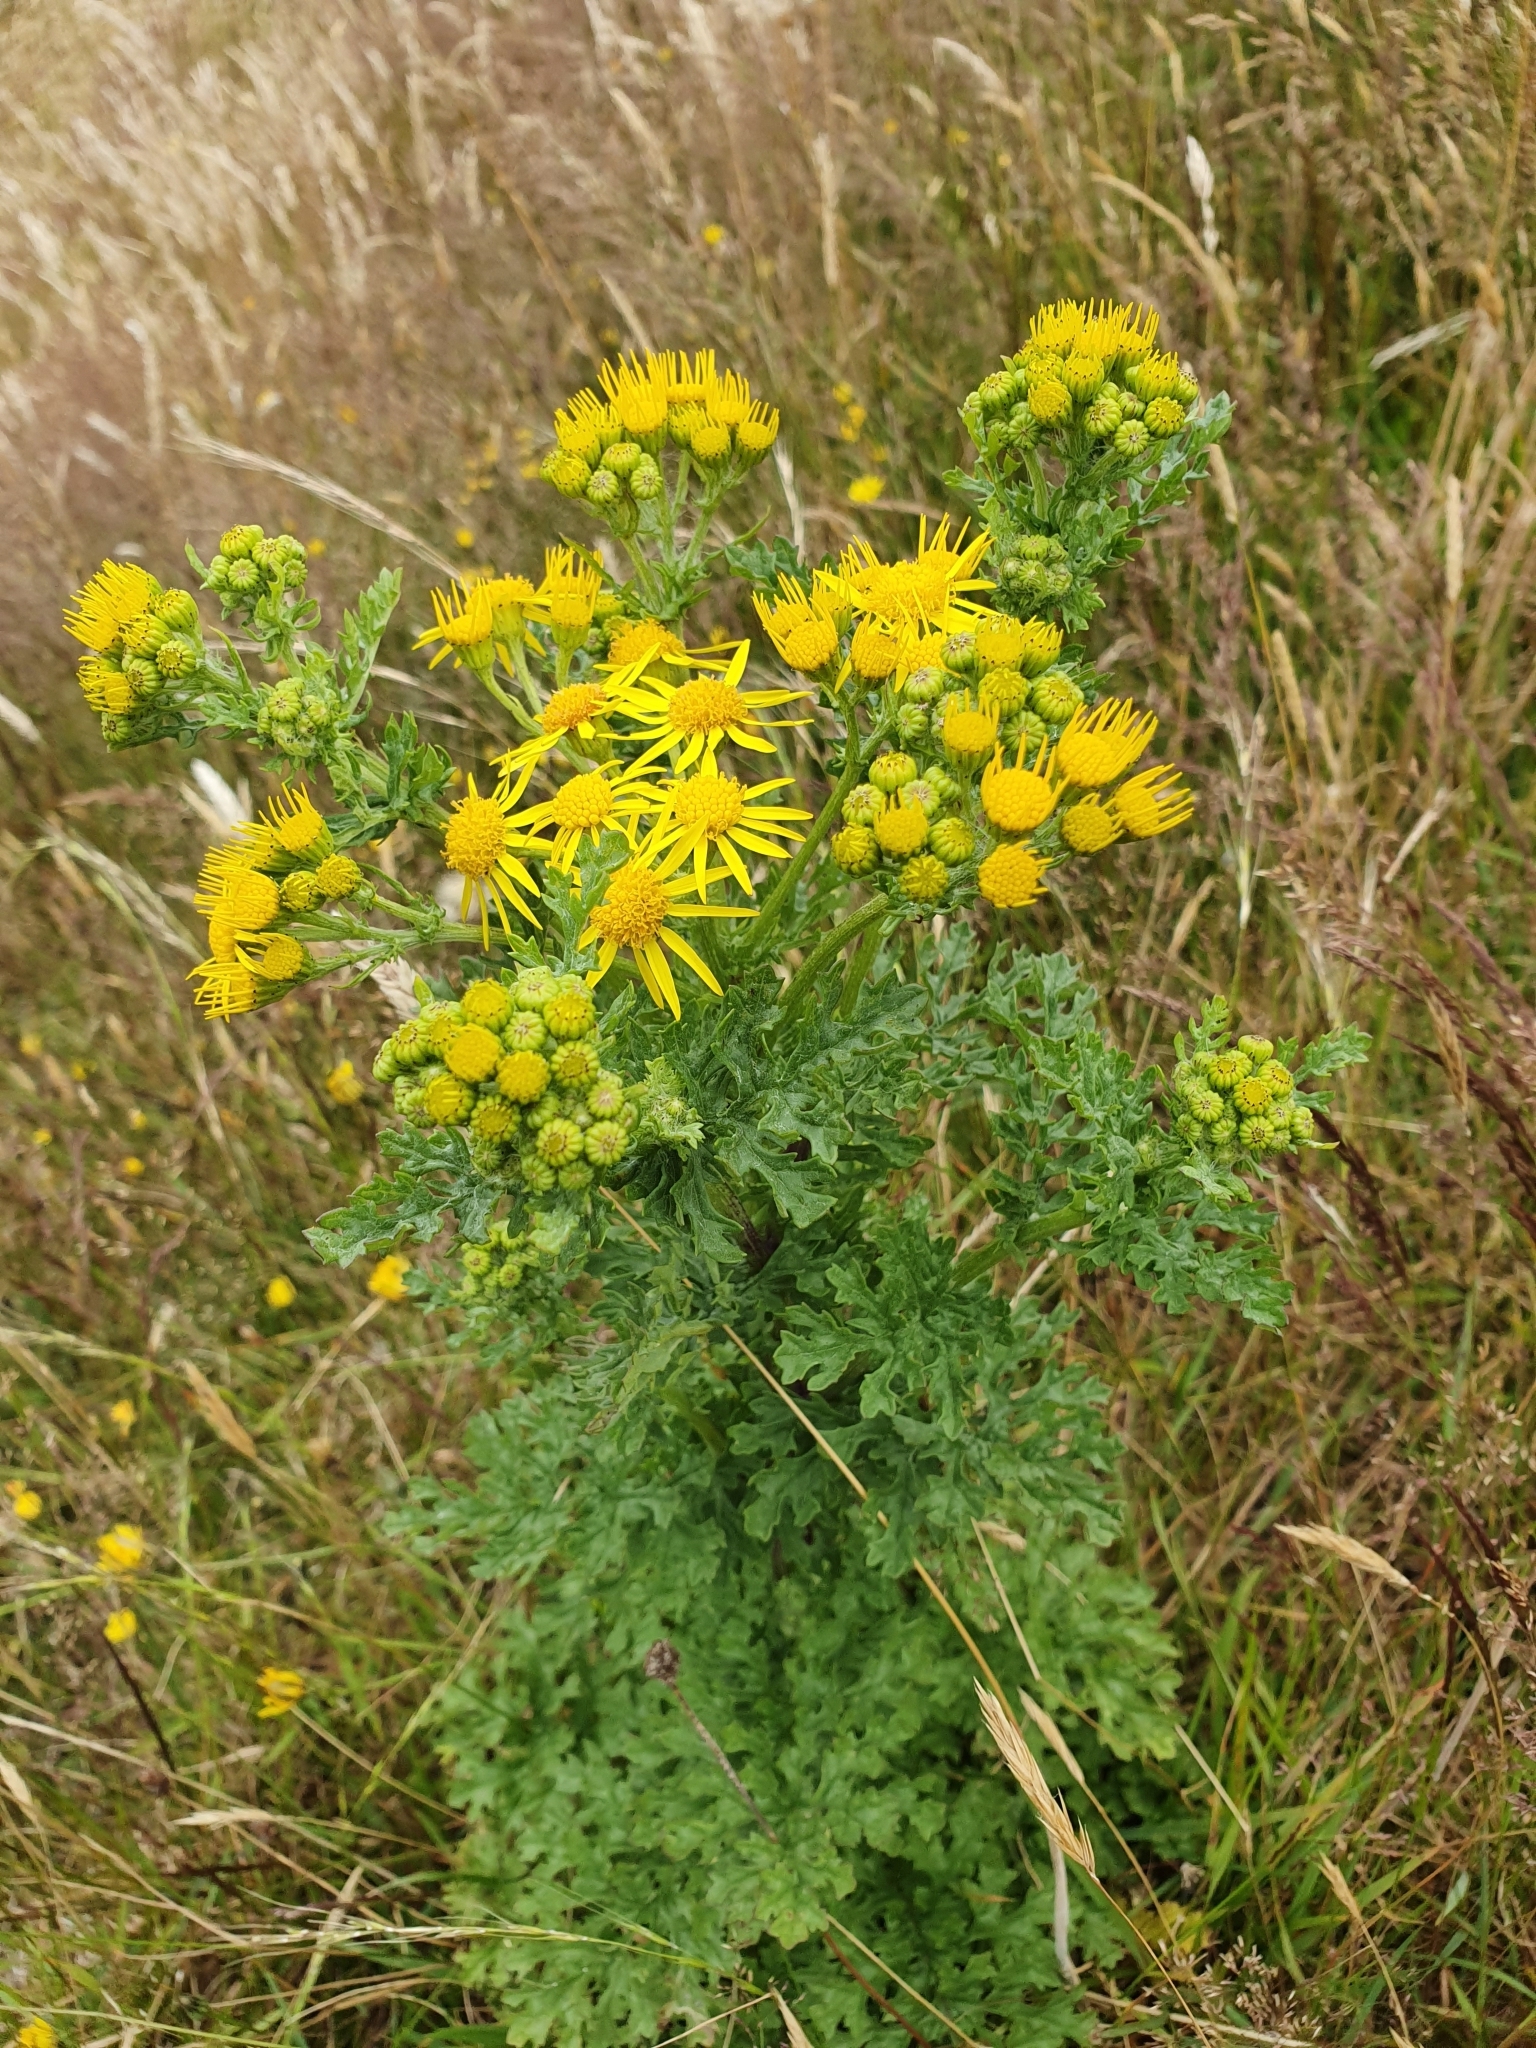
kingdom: Plantae
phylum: Tracheophyta
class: Magnoliopsida
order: Asterales
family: Asteraceae
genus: Jacobaea
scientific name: Jacobaea vulgaris
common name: Stinking willie
